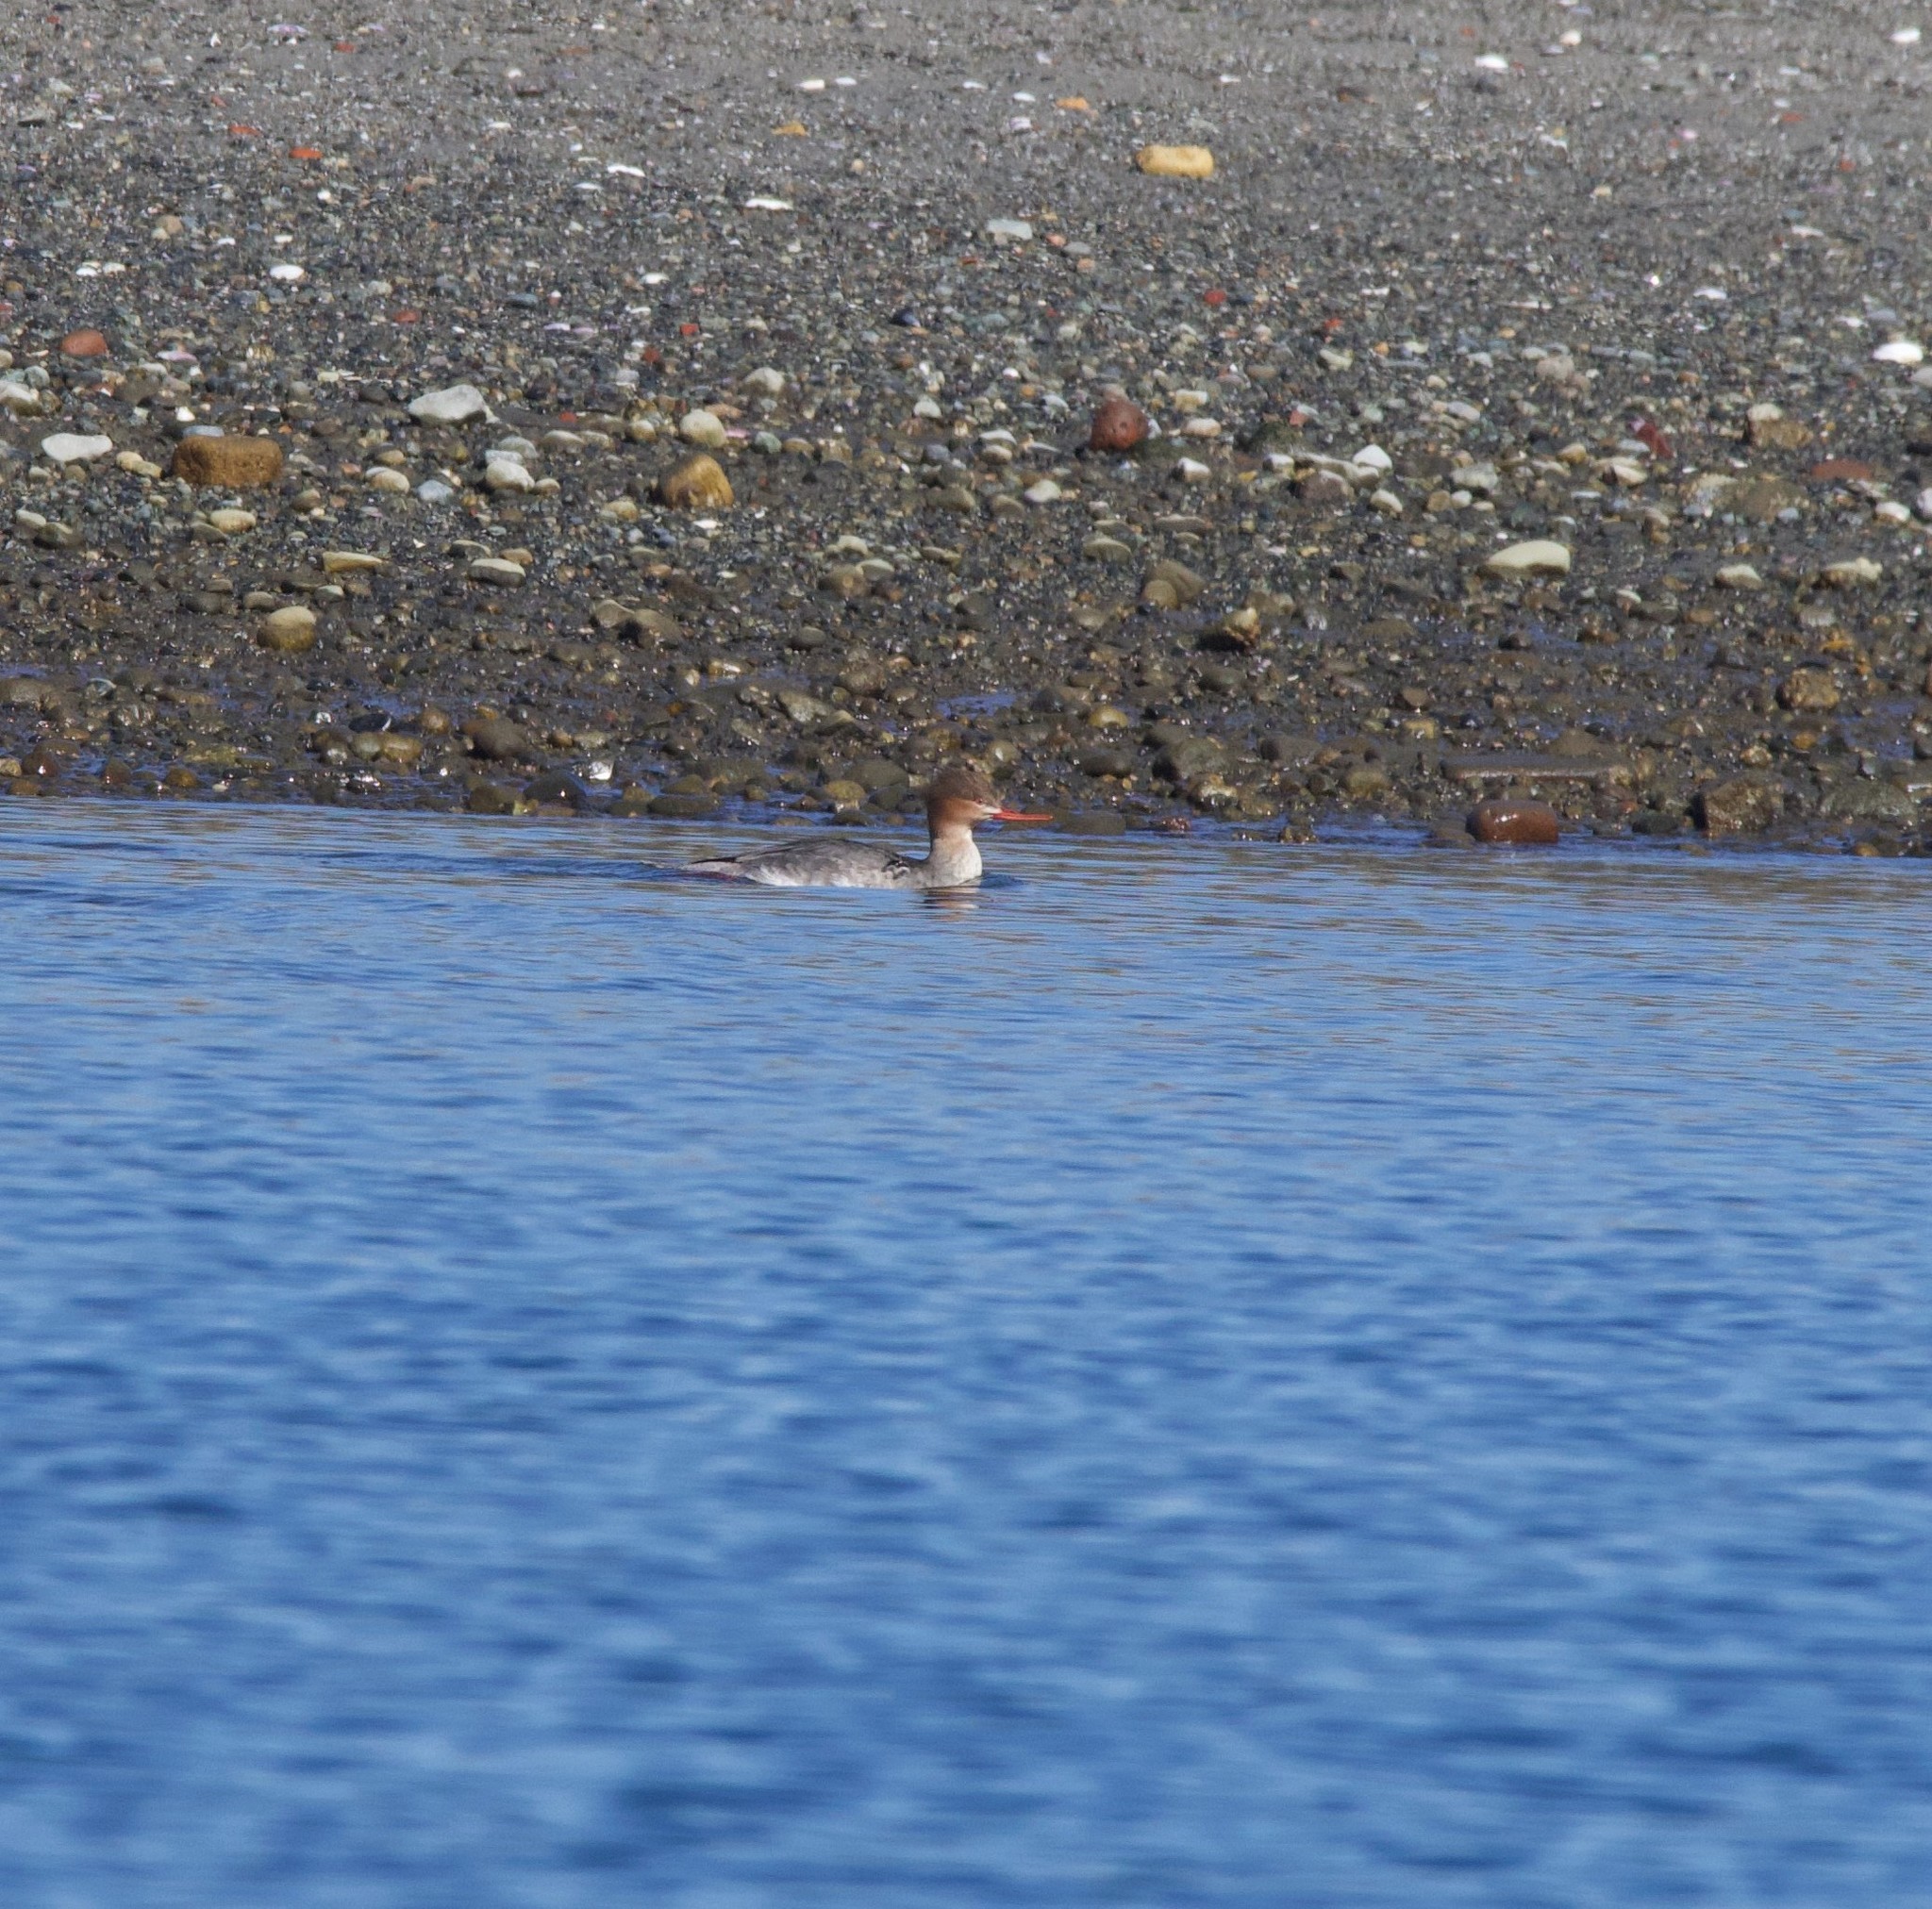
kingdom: Animalia
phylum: Chordata
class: Aves
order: Anseriformes
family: Anatidae
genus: Mergus
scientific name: Mergus serrator
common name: Red-breasted merganser
